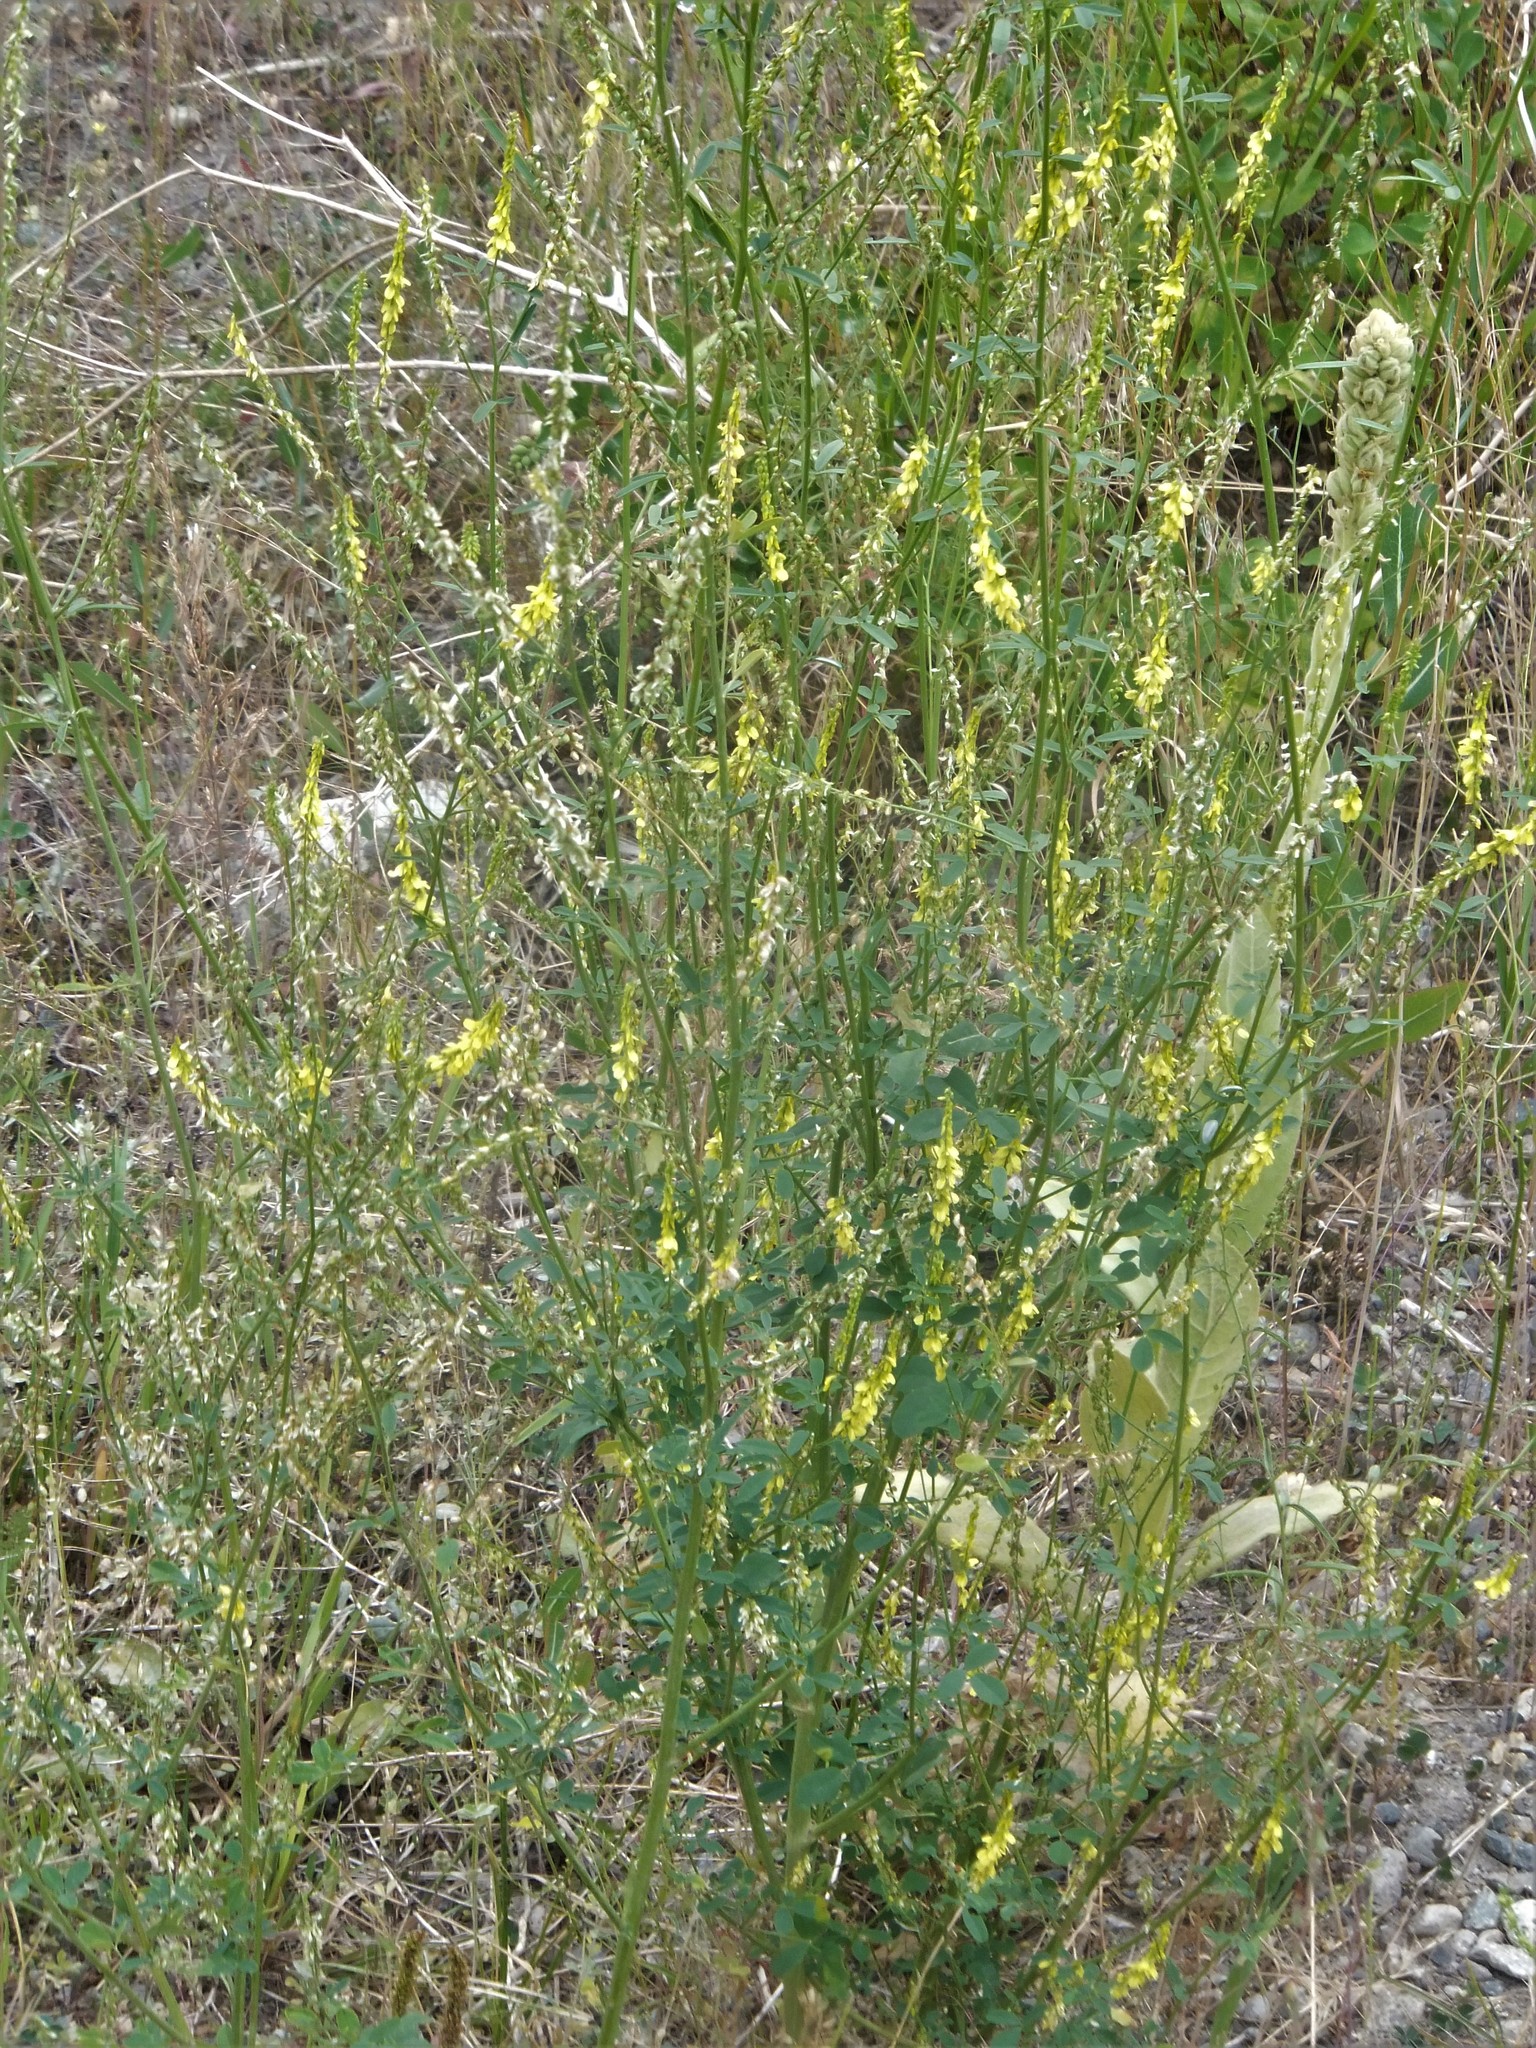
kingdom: Plantae
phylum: Tracheophyta
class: Magnoliopsida
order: Fabales
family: Fabaceae
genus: Melilotus
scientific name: Melilotus officinalis
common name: Sweetclover
